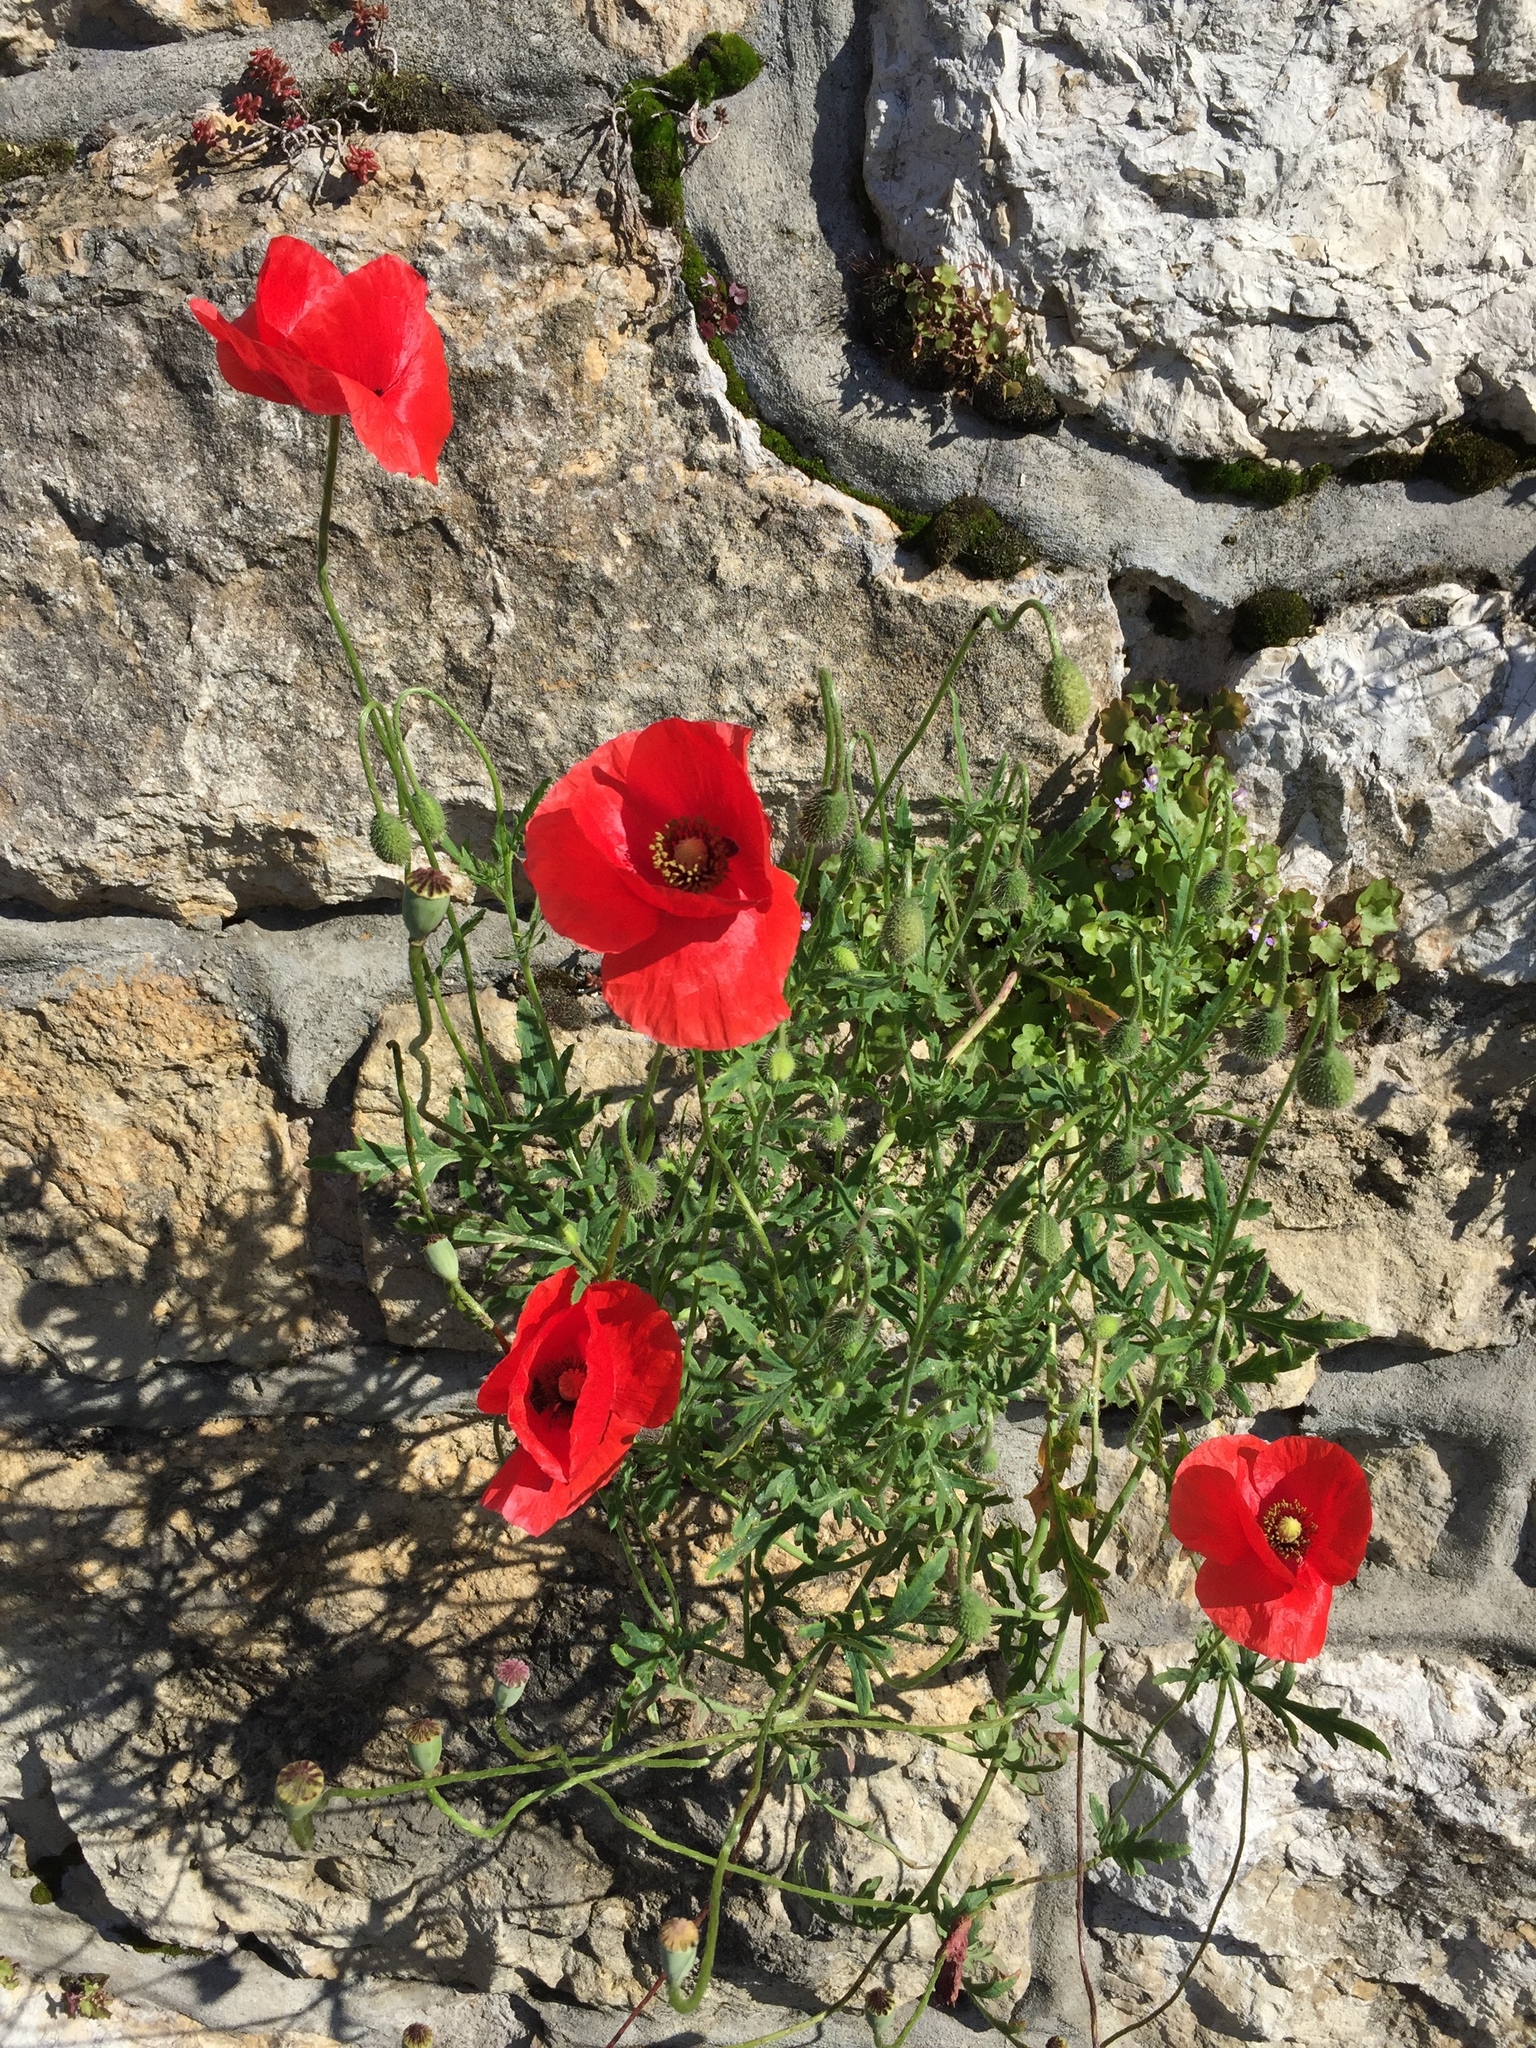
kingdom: Plantae
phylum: Tracheophyta
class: Magnoliopsida
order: Ranunculales
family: Papaveraceae
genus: Papaver
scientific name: Papaver rhoeas
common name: Corn poppy
